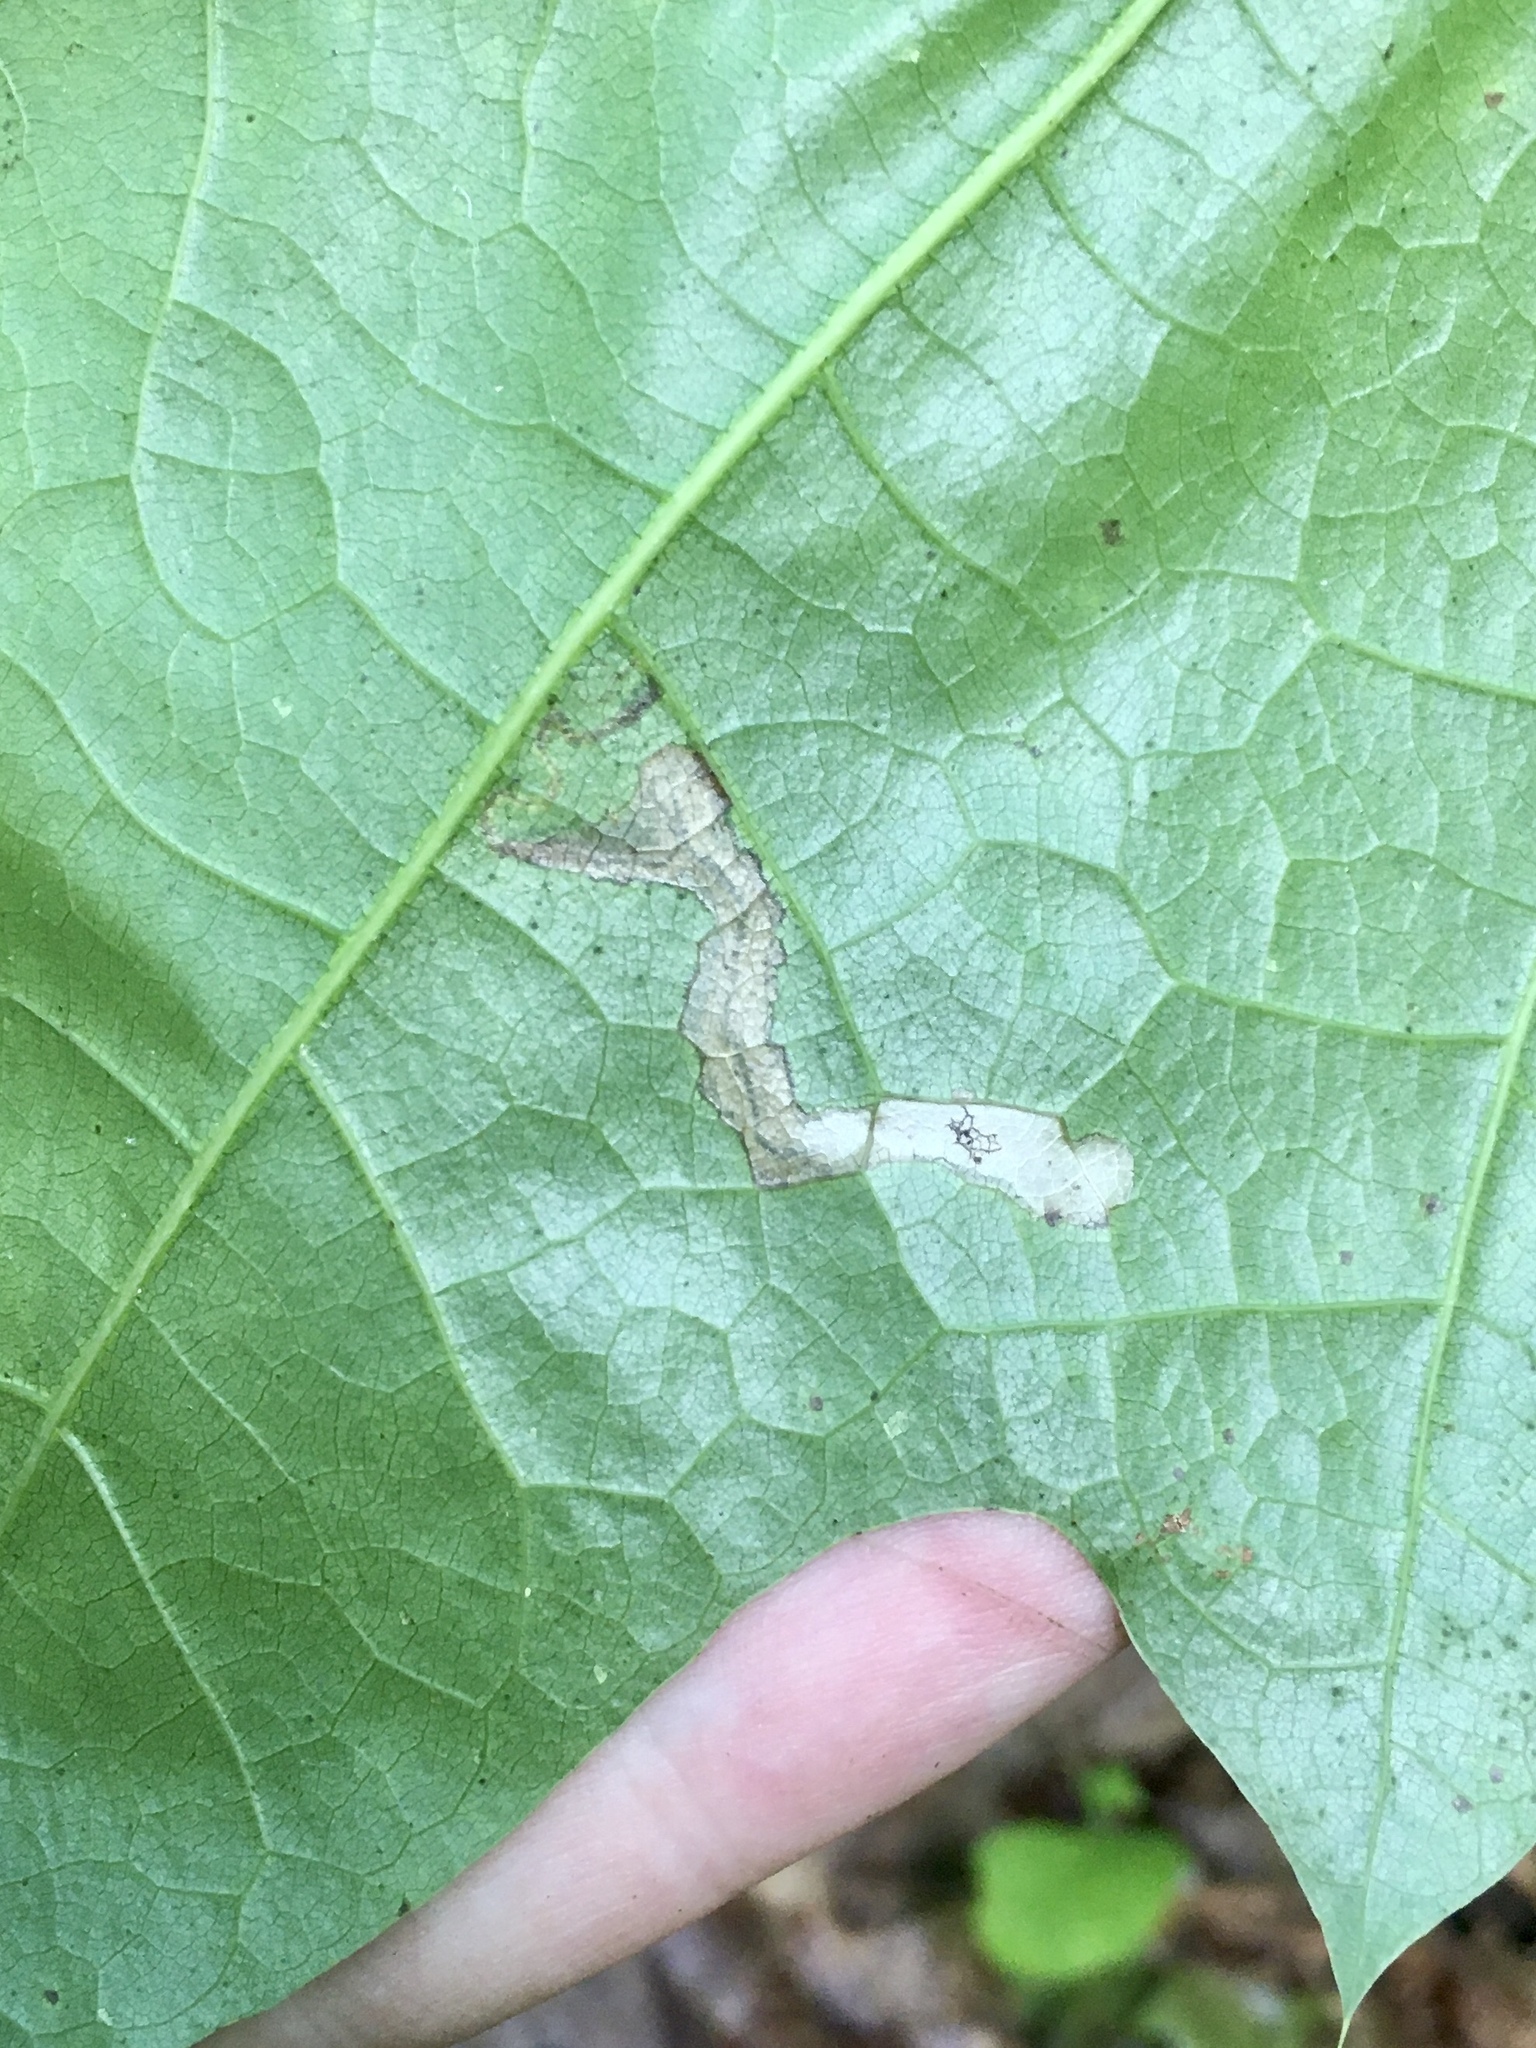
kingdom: Animalia
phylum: Arthropoda
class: Insecta
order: Lepidoptera
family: Nepticulidae
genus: Stigmella
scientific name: Stigmella quercipulchella
